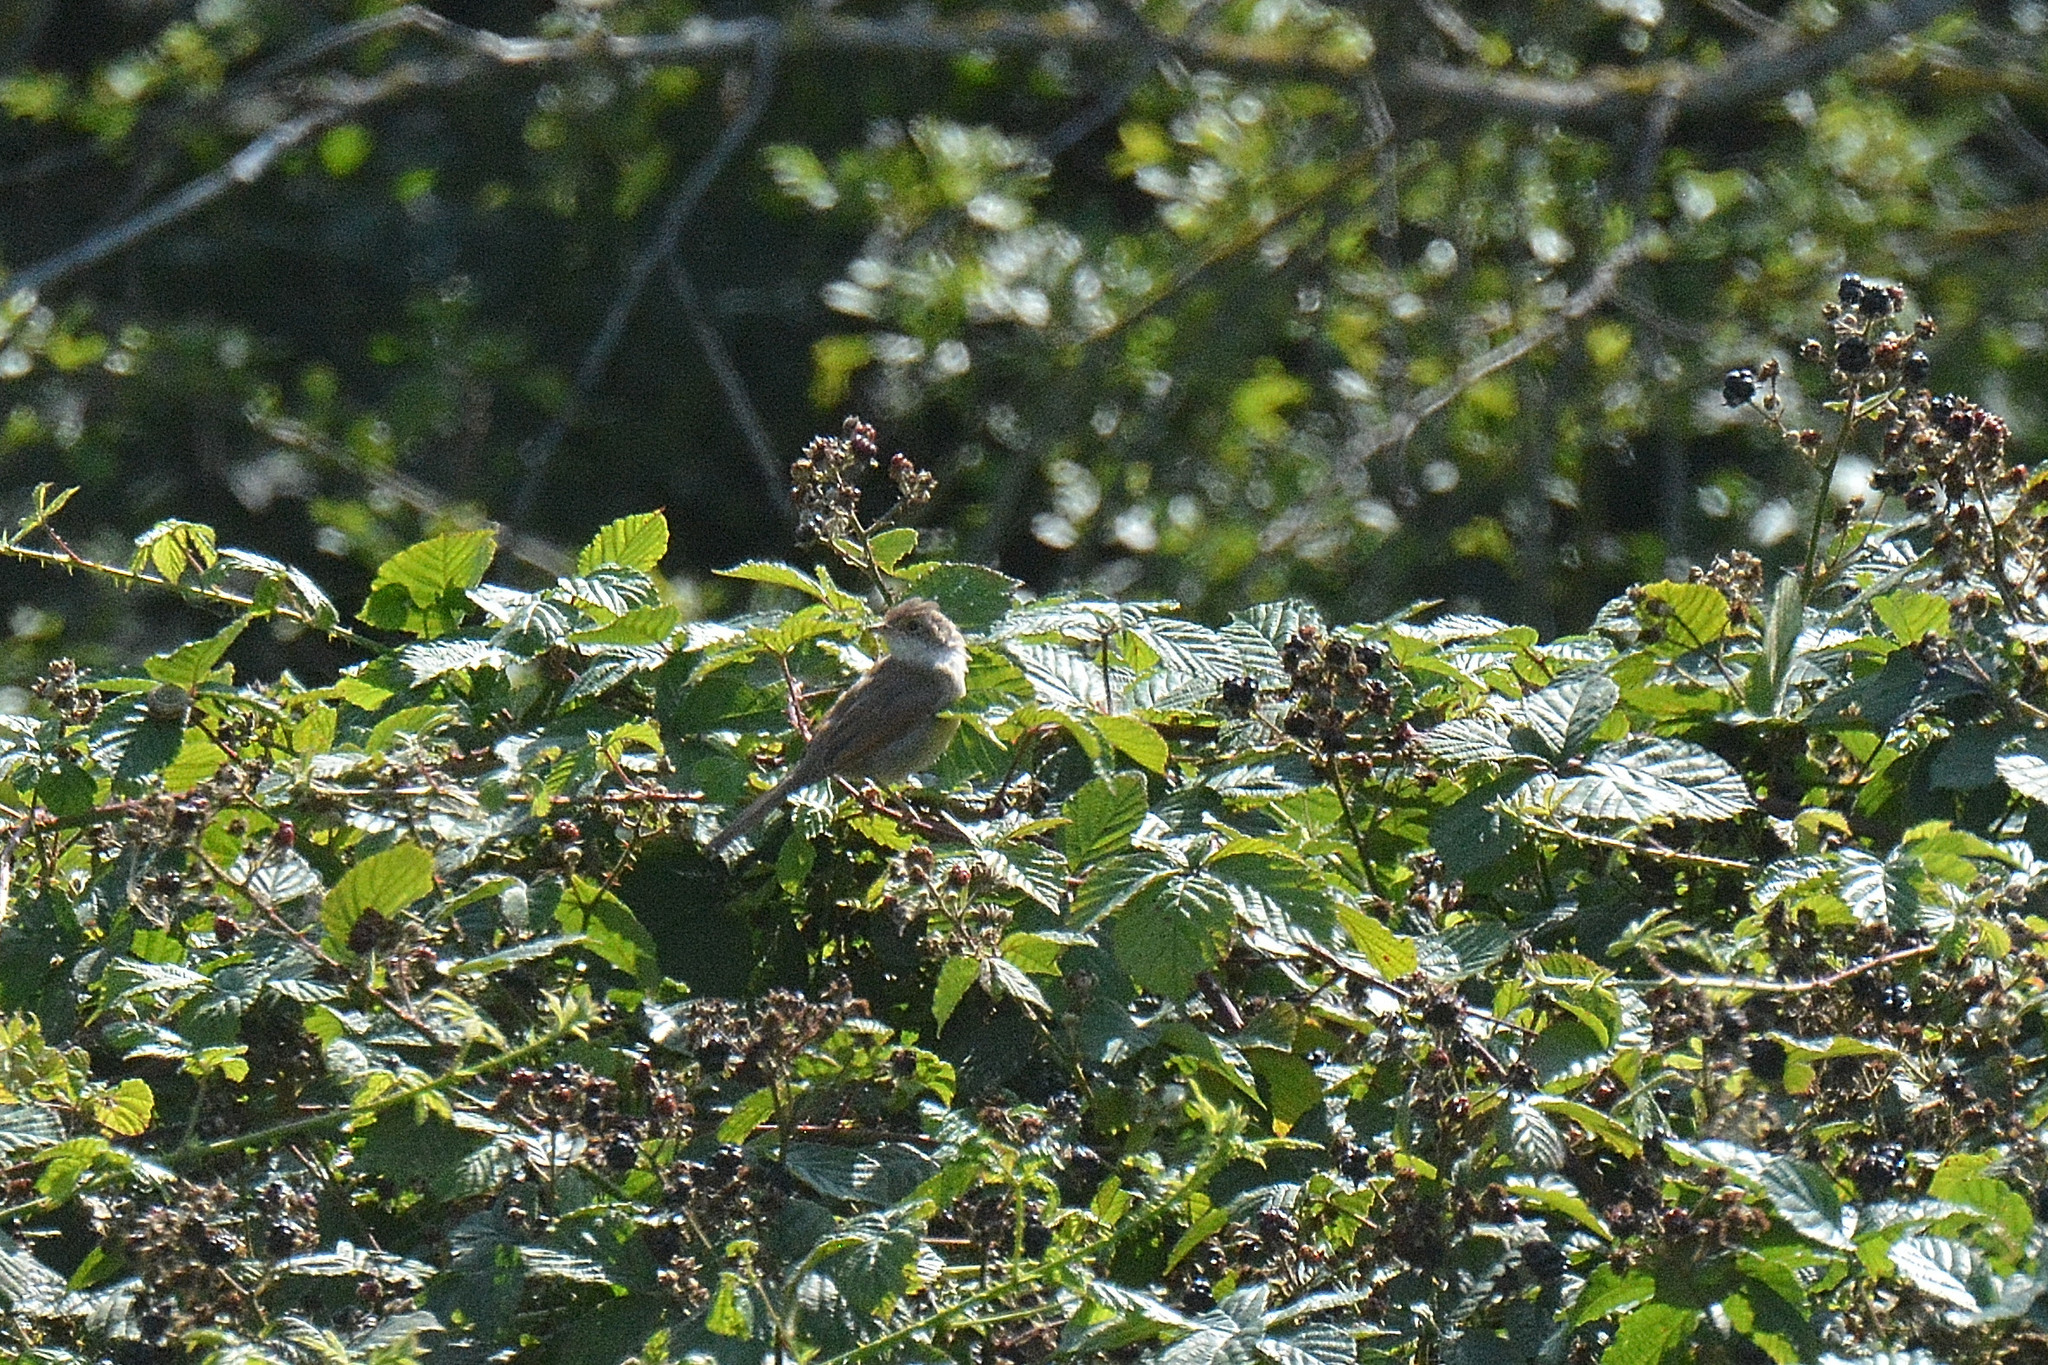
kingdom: Animalia
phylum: Chordata
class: Aves
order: Passeriformes
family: Sylviidae
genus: Sylvia
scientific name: Sylvia communis
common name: Common whitethroat
